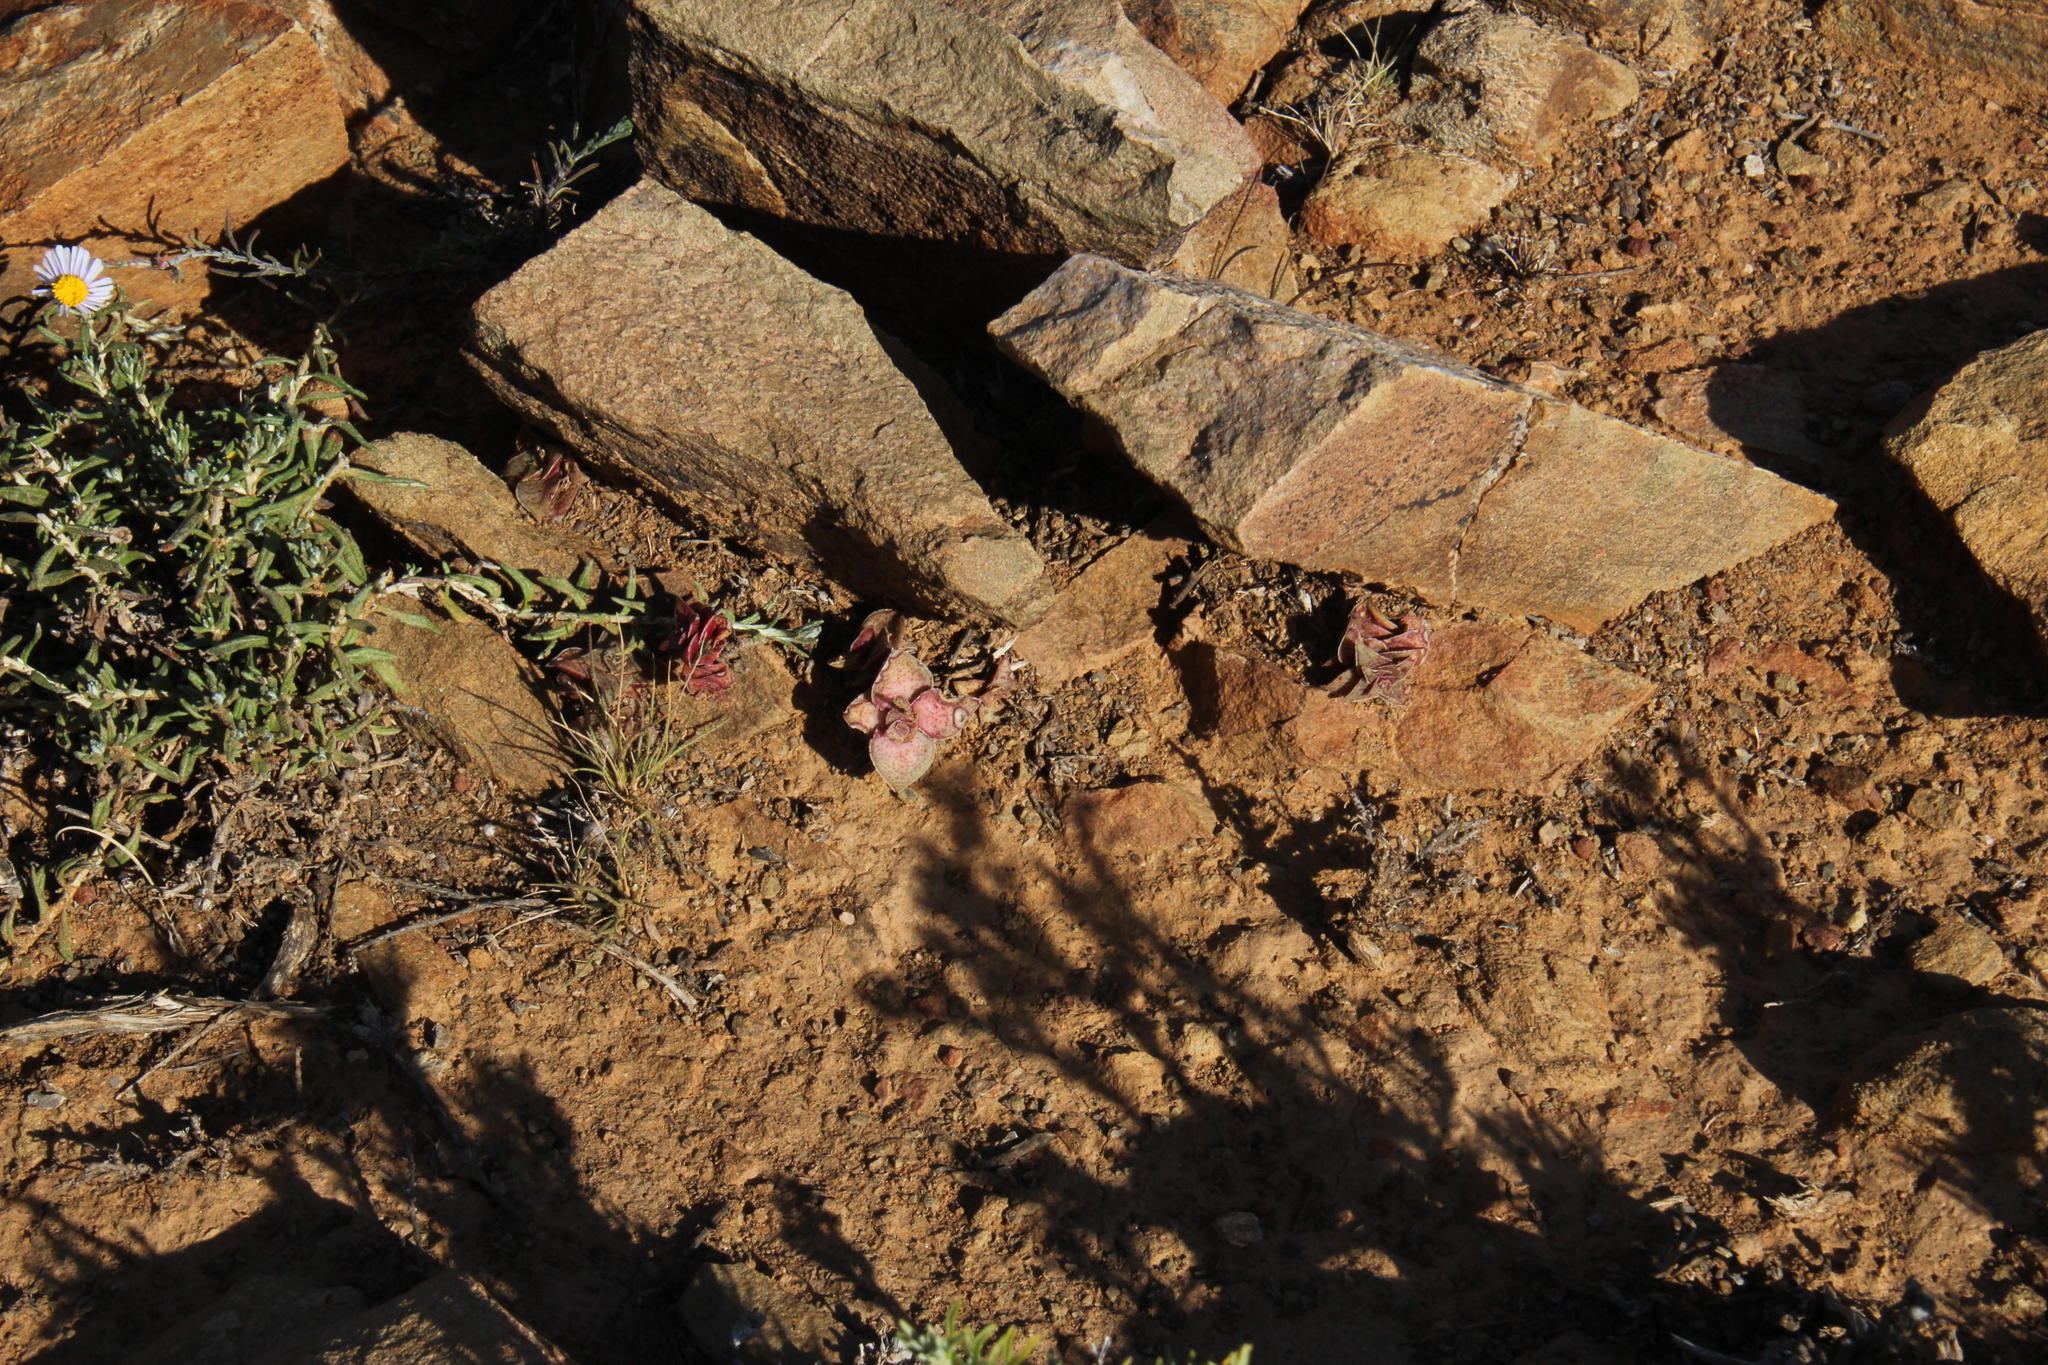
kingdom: Plantae
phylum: Tracheophyta
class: Magnoliopsida
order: Saxifragales
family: Crassulaceae
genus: Crassula
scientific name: Crassula capitella
